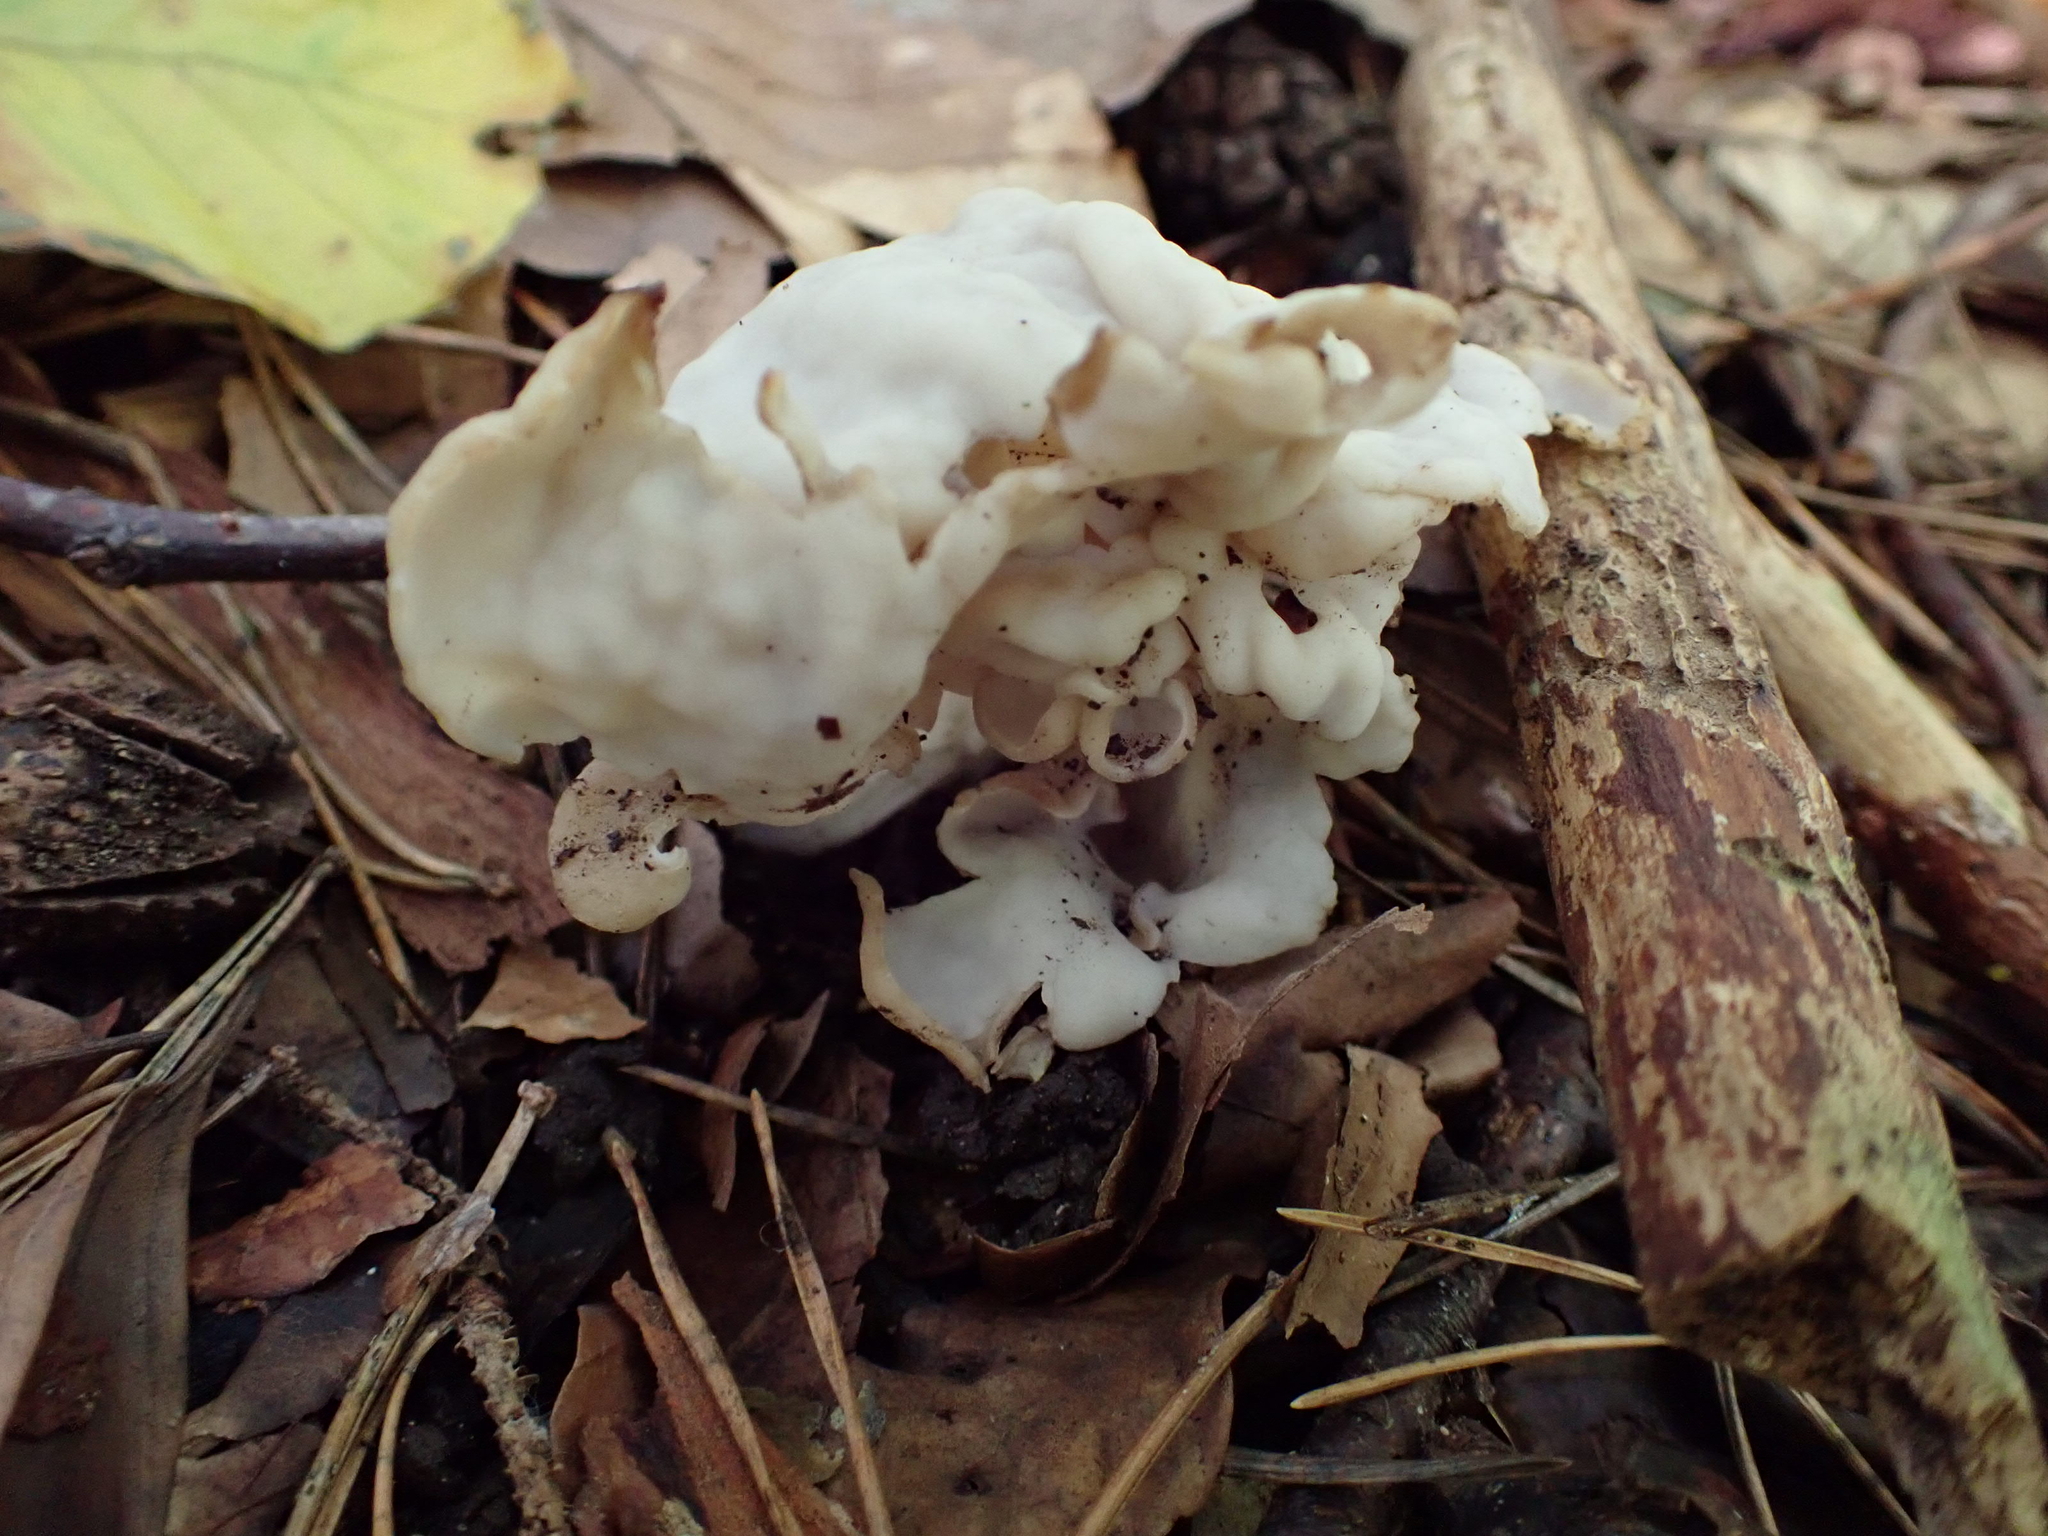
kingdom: Fungi
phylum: Ascomycota
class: Pezizomycetes
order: Pezizales
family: Helvellaceae
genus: Helvella
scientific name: Helvella crispa
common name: White saddle
